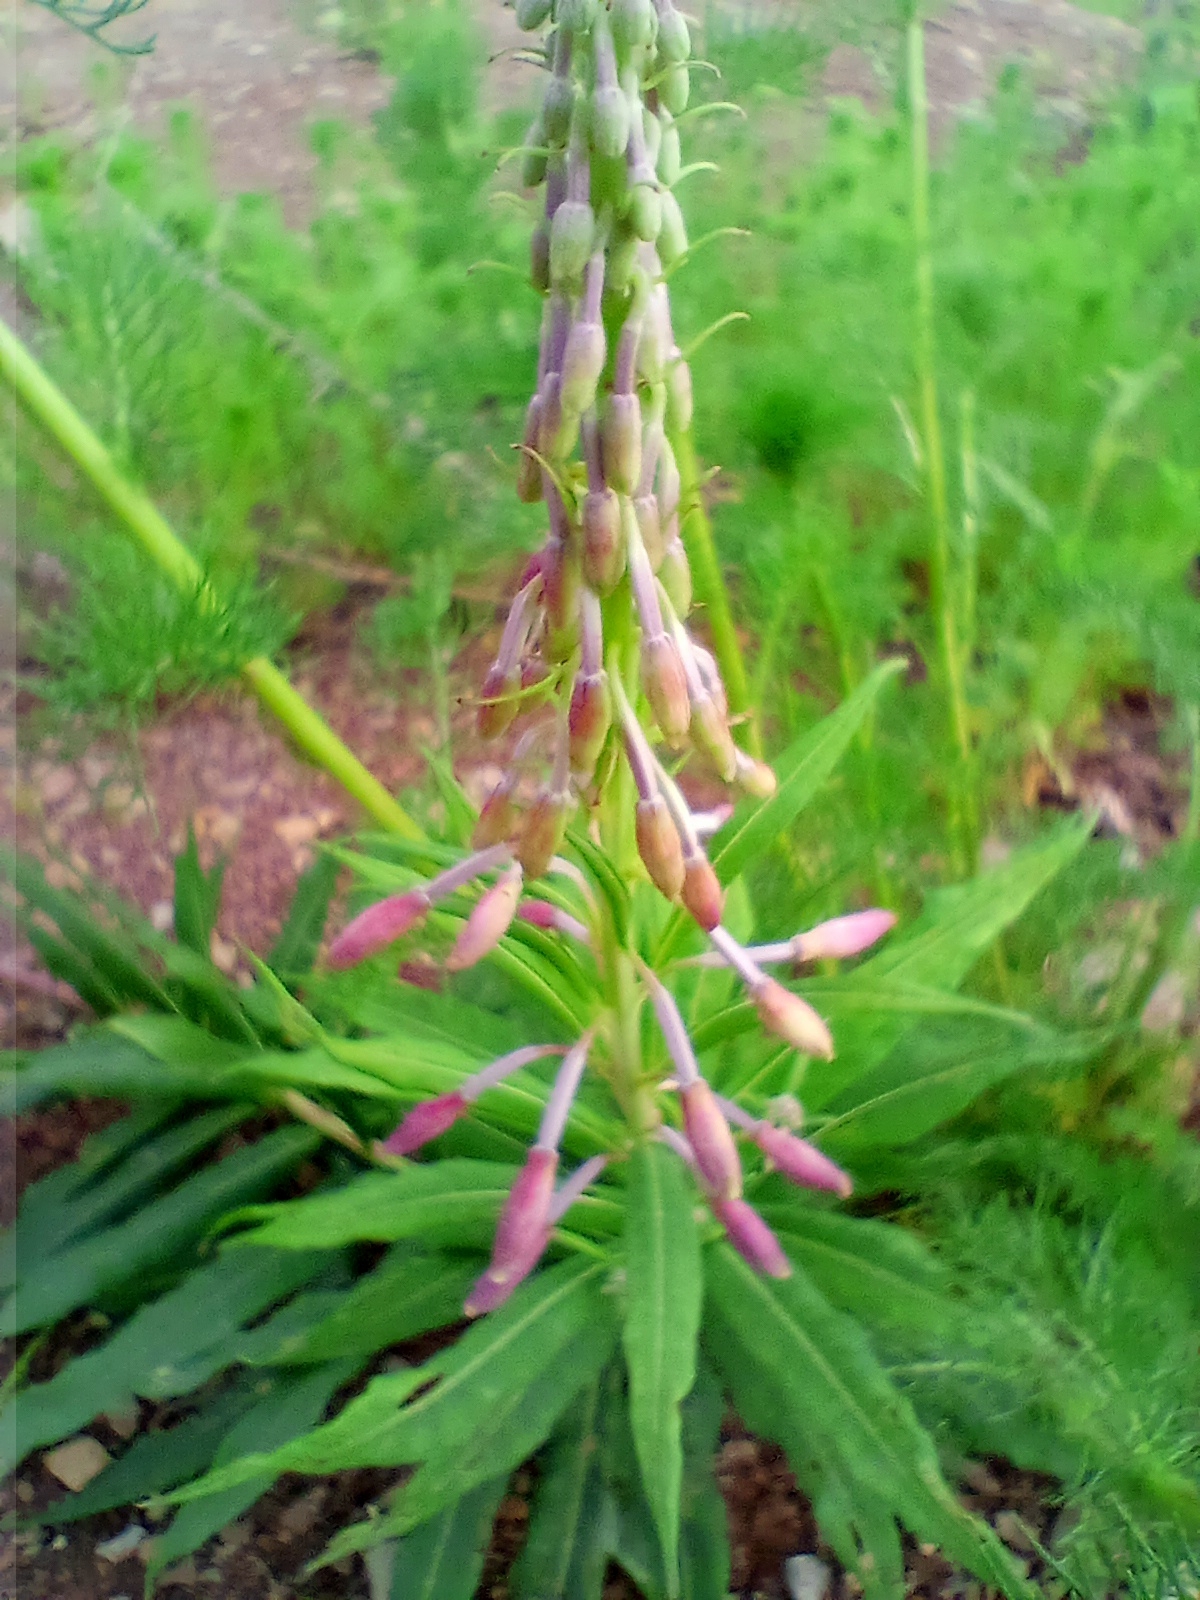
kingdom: Plantae
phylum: Tracheophyta
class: Magnoliopsida
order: Myrtales
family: Onagraceae
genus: Chamaenerion
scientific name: Chamaenerion angustifolium
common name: Fireweed
